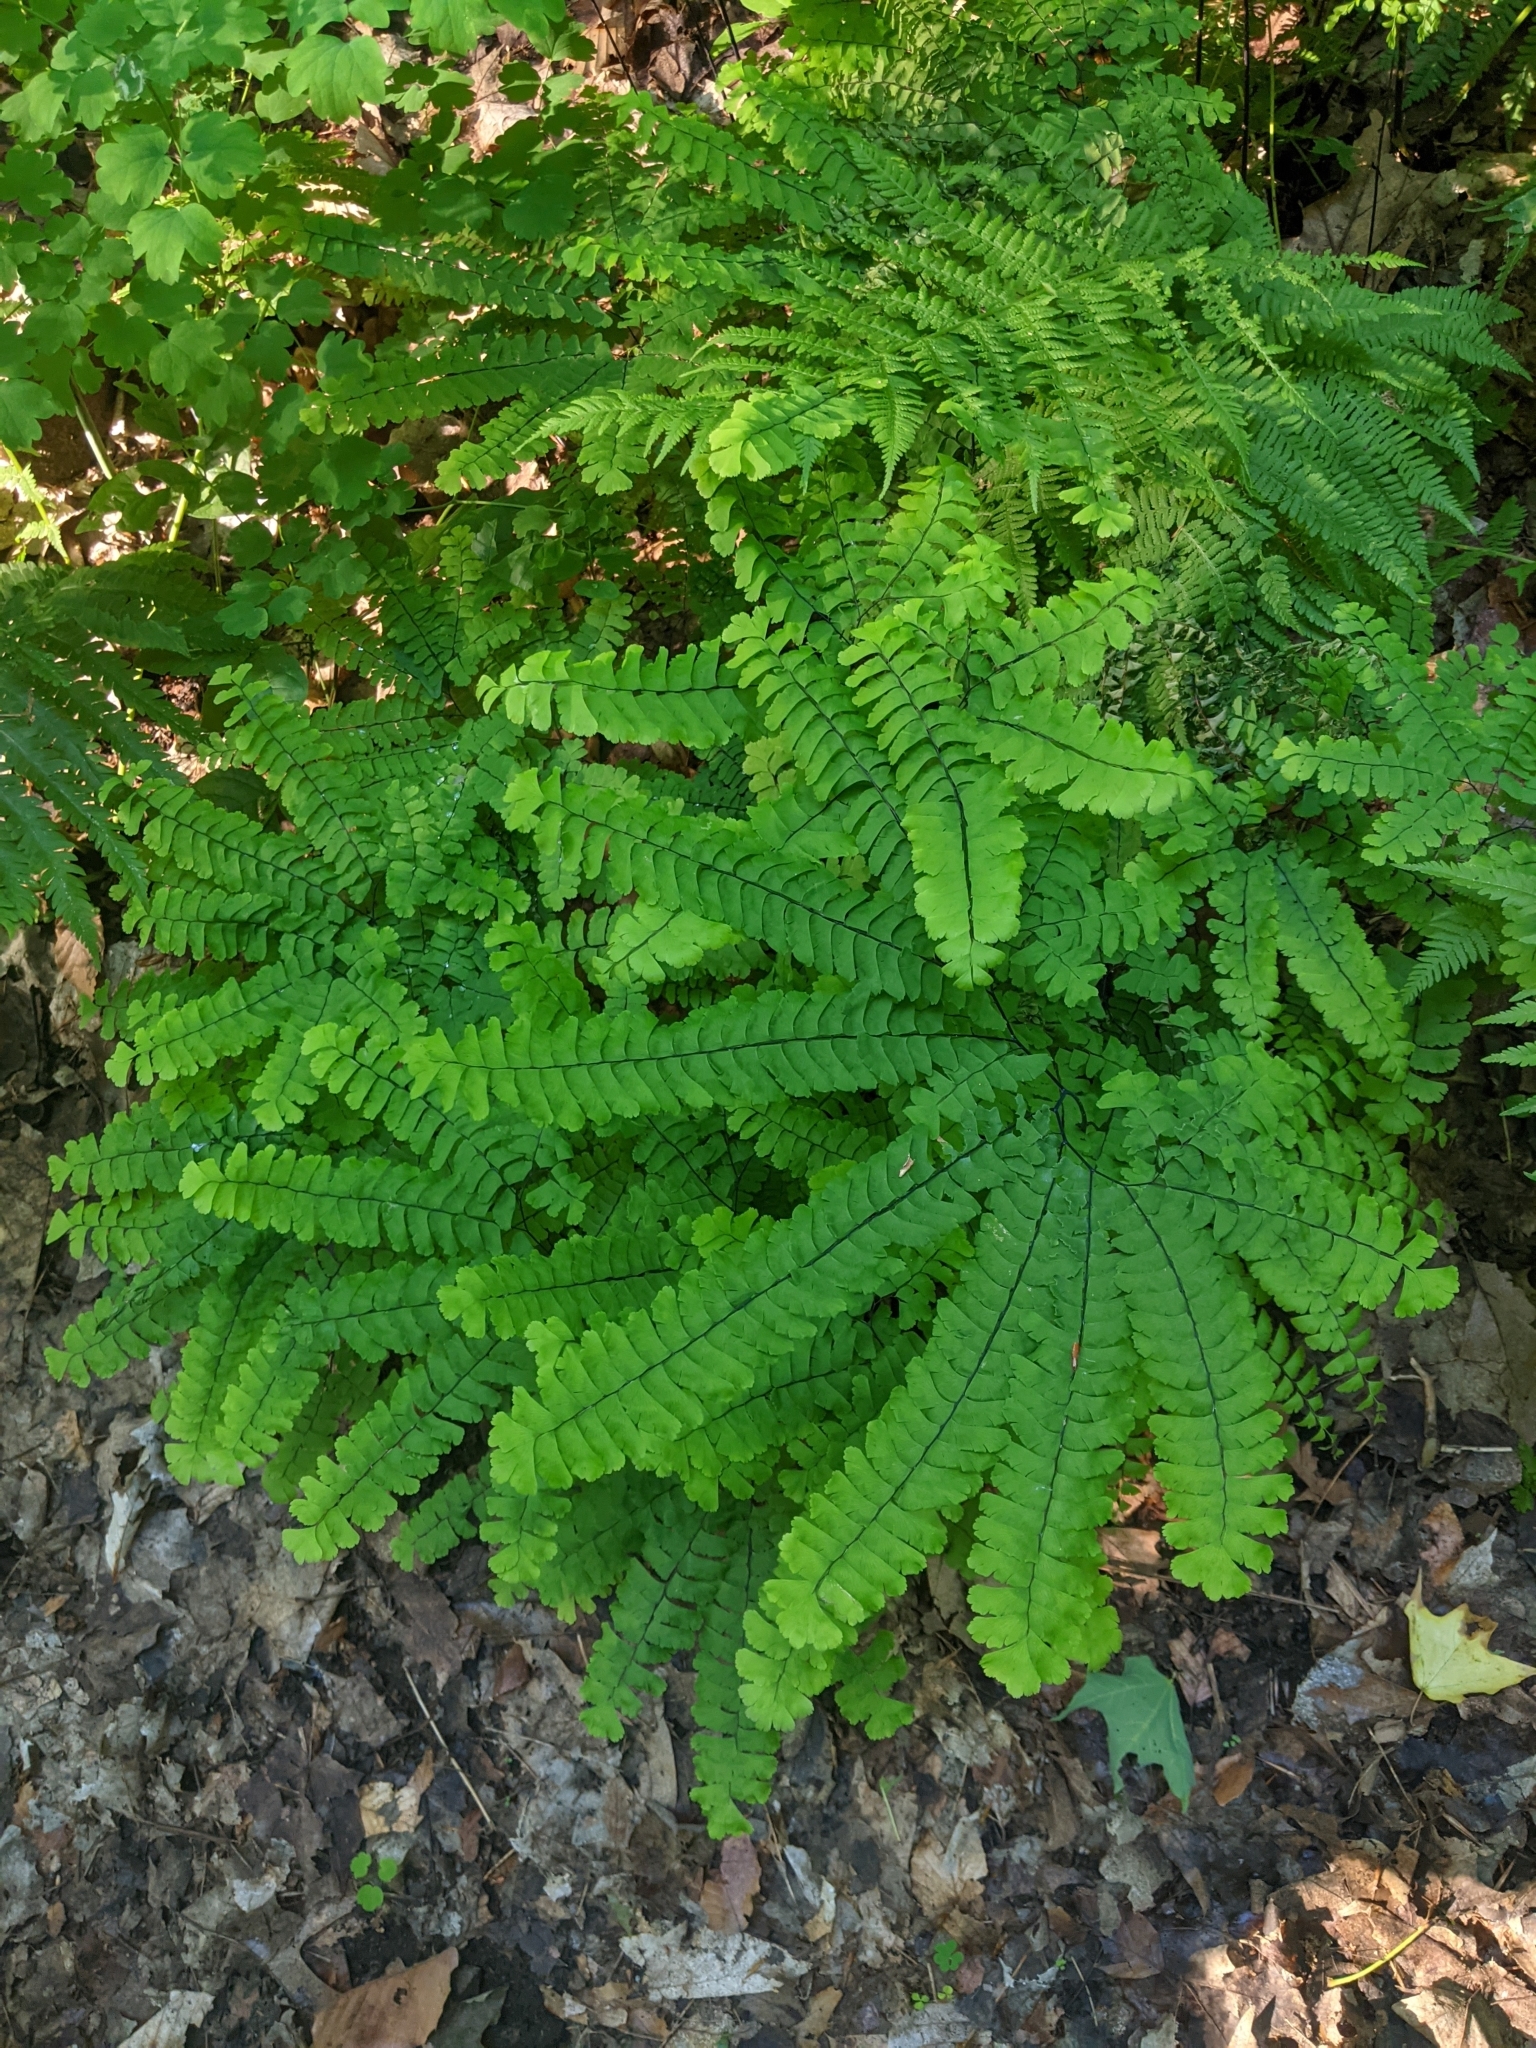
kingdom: Plantae
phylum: Tracheophyta
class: Polypodiopsida
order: Polypodiales
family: Pteridaceae
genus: Adiantum
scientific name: Adiantum pedatum
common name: Five-finger fern
